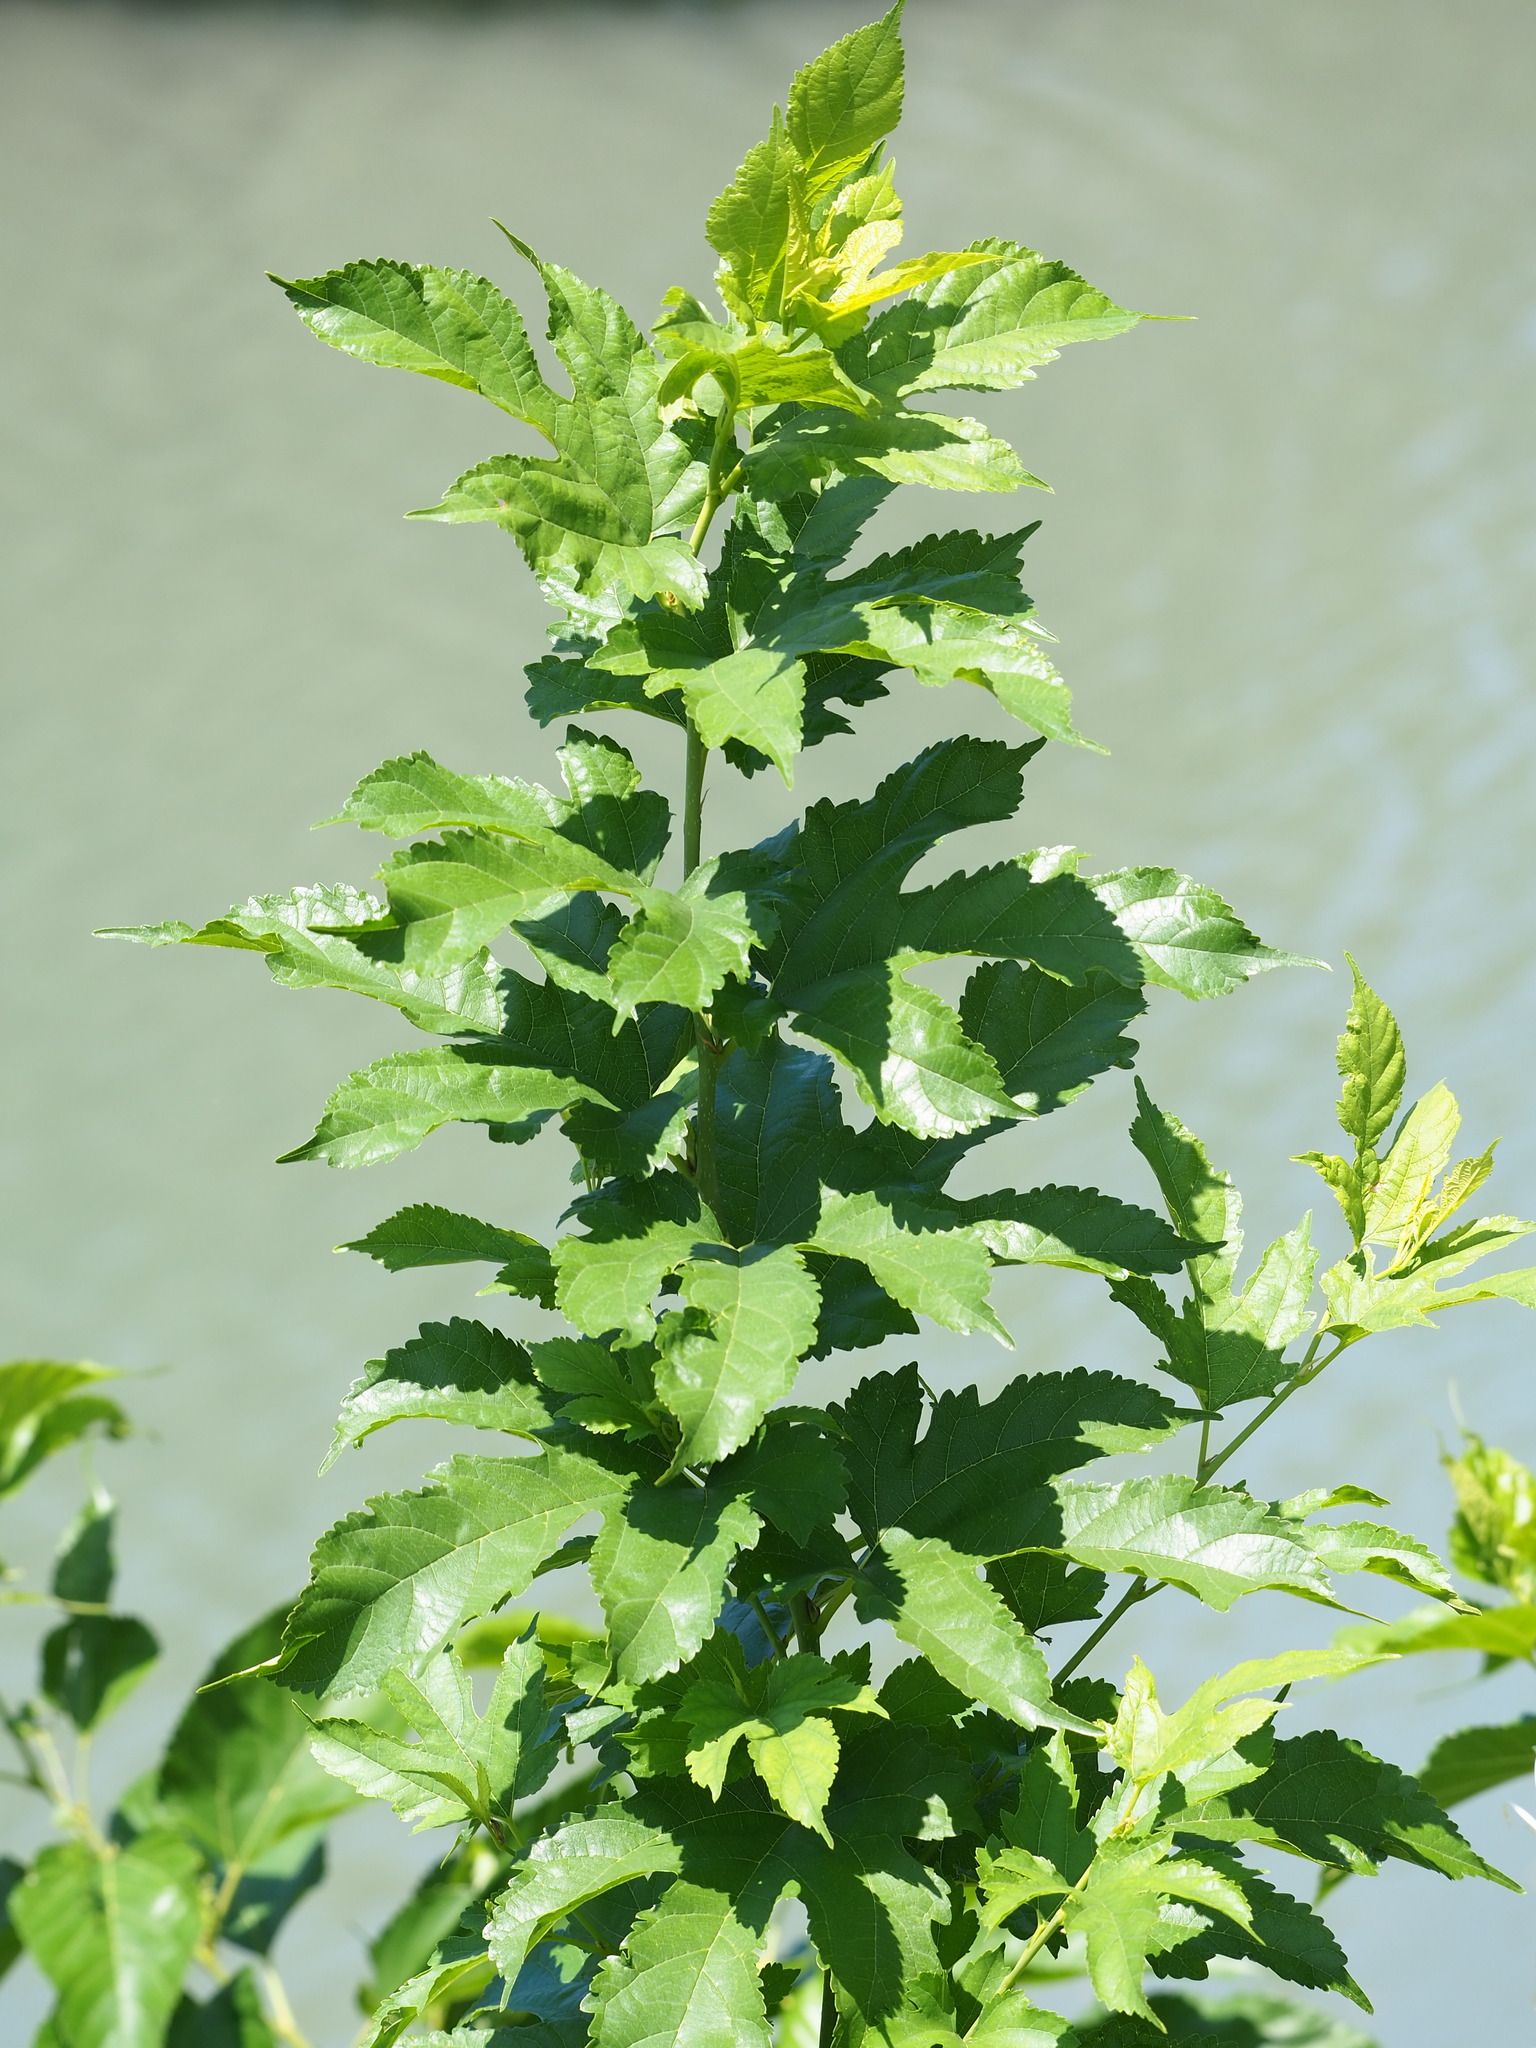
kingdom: Plantae
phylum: Tracheophyta
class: Magnoliopsida
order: Rosales
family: Moraceae
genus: Morus
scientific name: Morus indica
